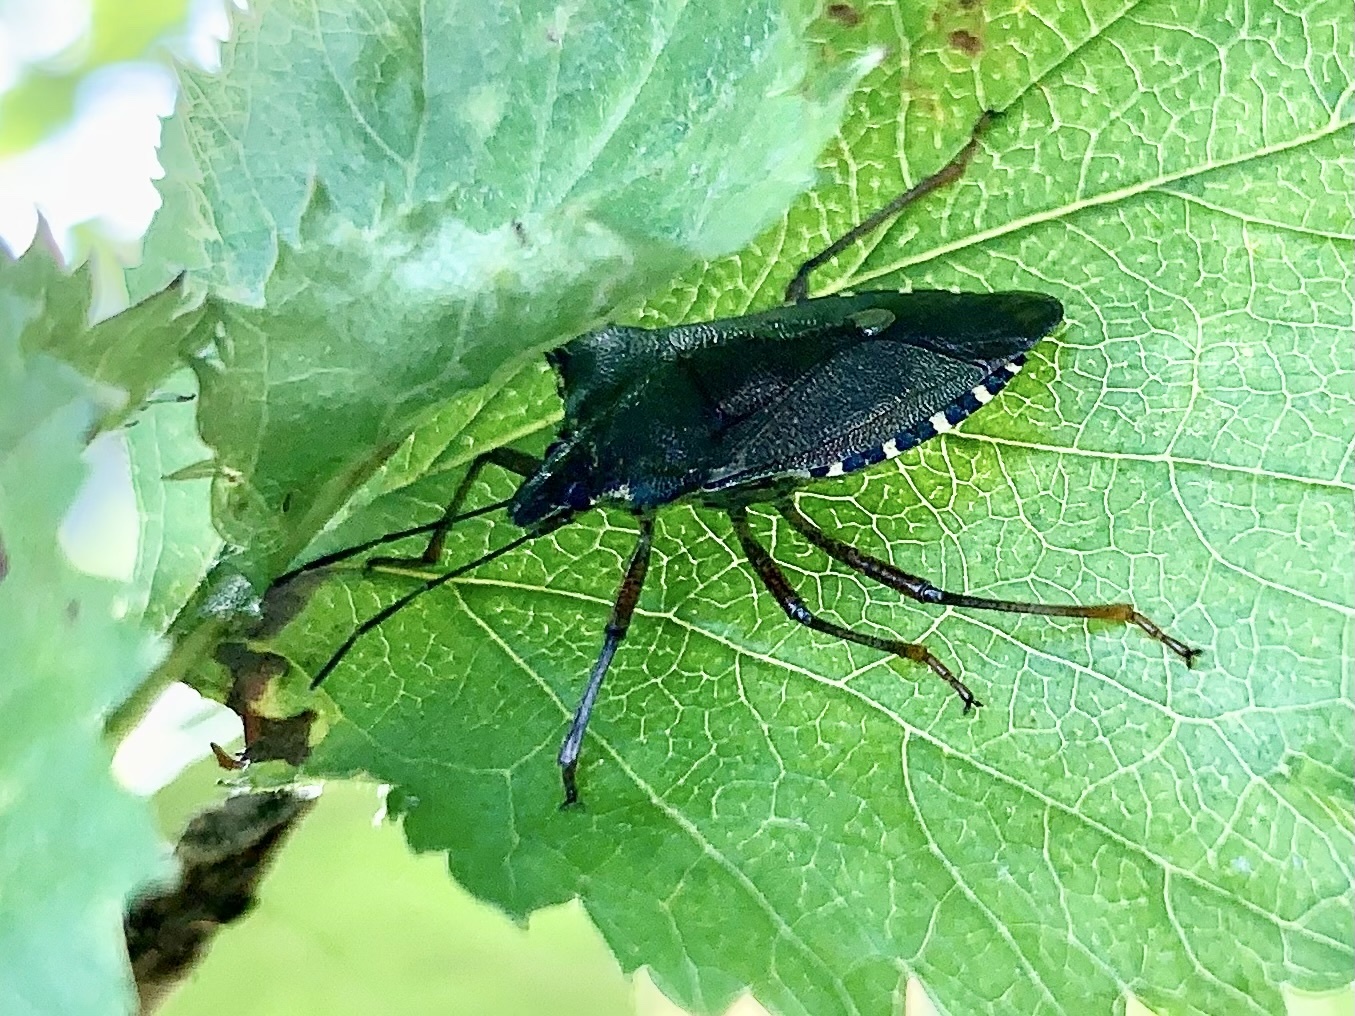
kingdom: Animalia
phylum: Arthropoda
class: Insecta
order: Hemiptera
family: Pentatomidae
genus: Pentatoma
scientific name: Pentatoma rufipes
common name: Forest bug
